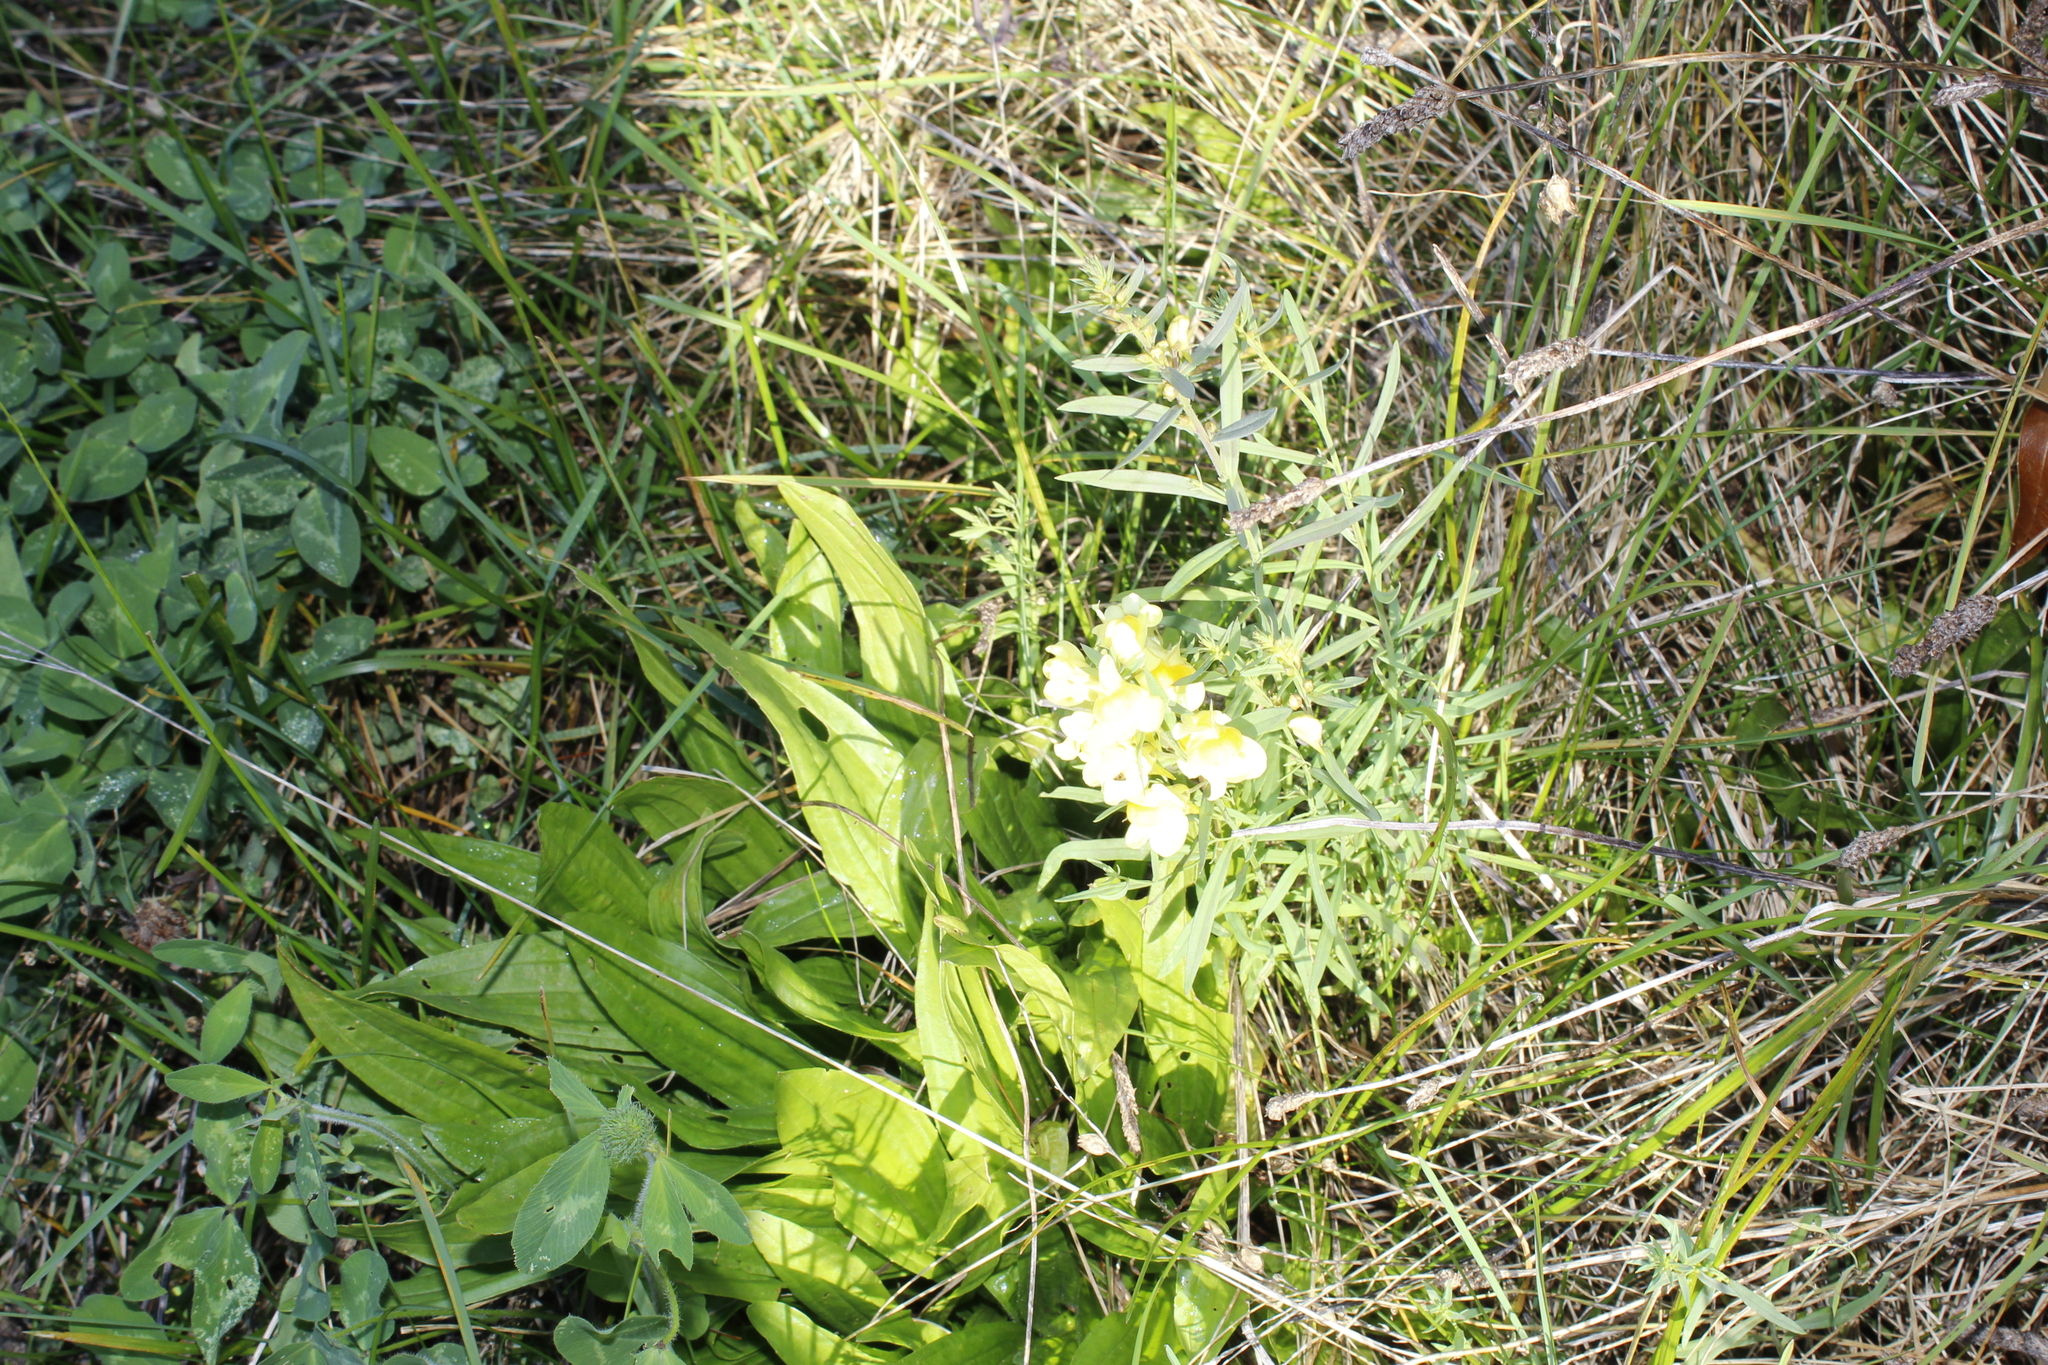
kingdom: Plantae
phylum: Tracheophyta
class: Magnoliopsida
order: Lamiales
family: Plantaginaceae
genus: Linaria
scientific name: Linaria vulgaris
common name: Butter and eggs
